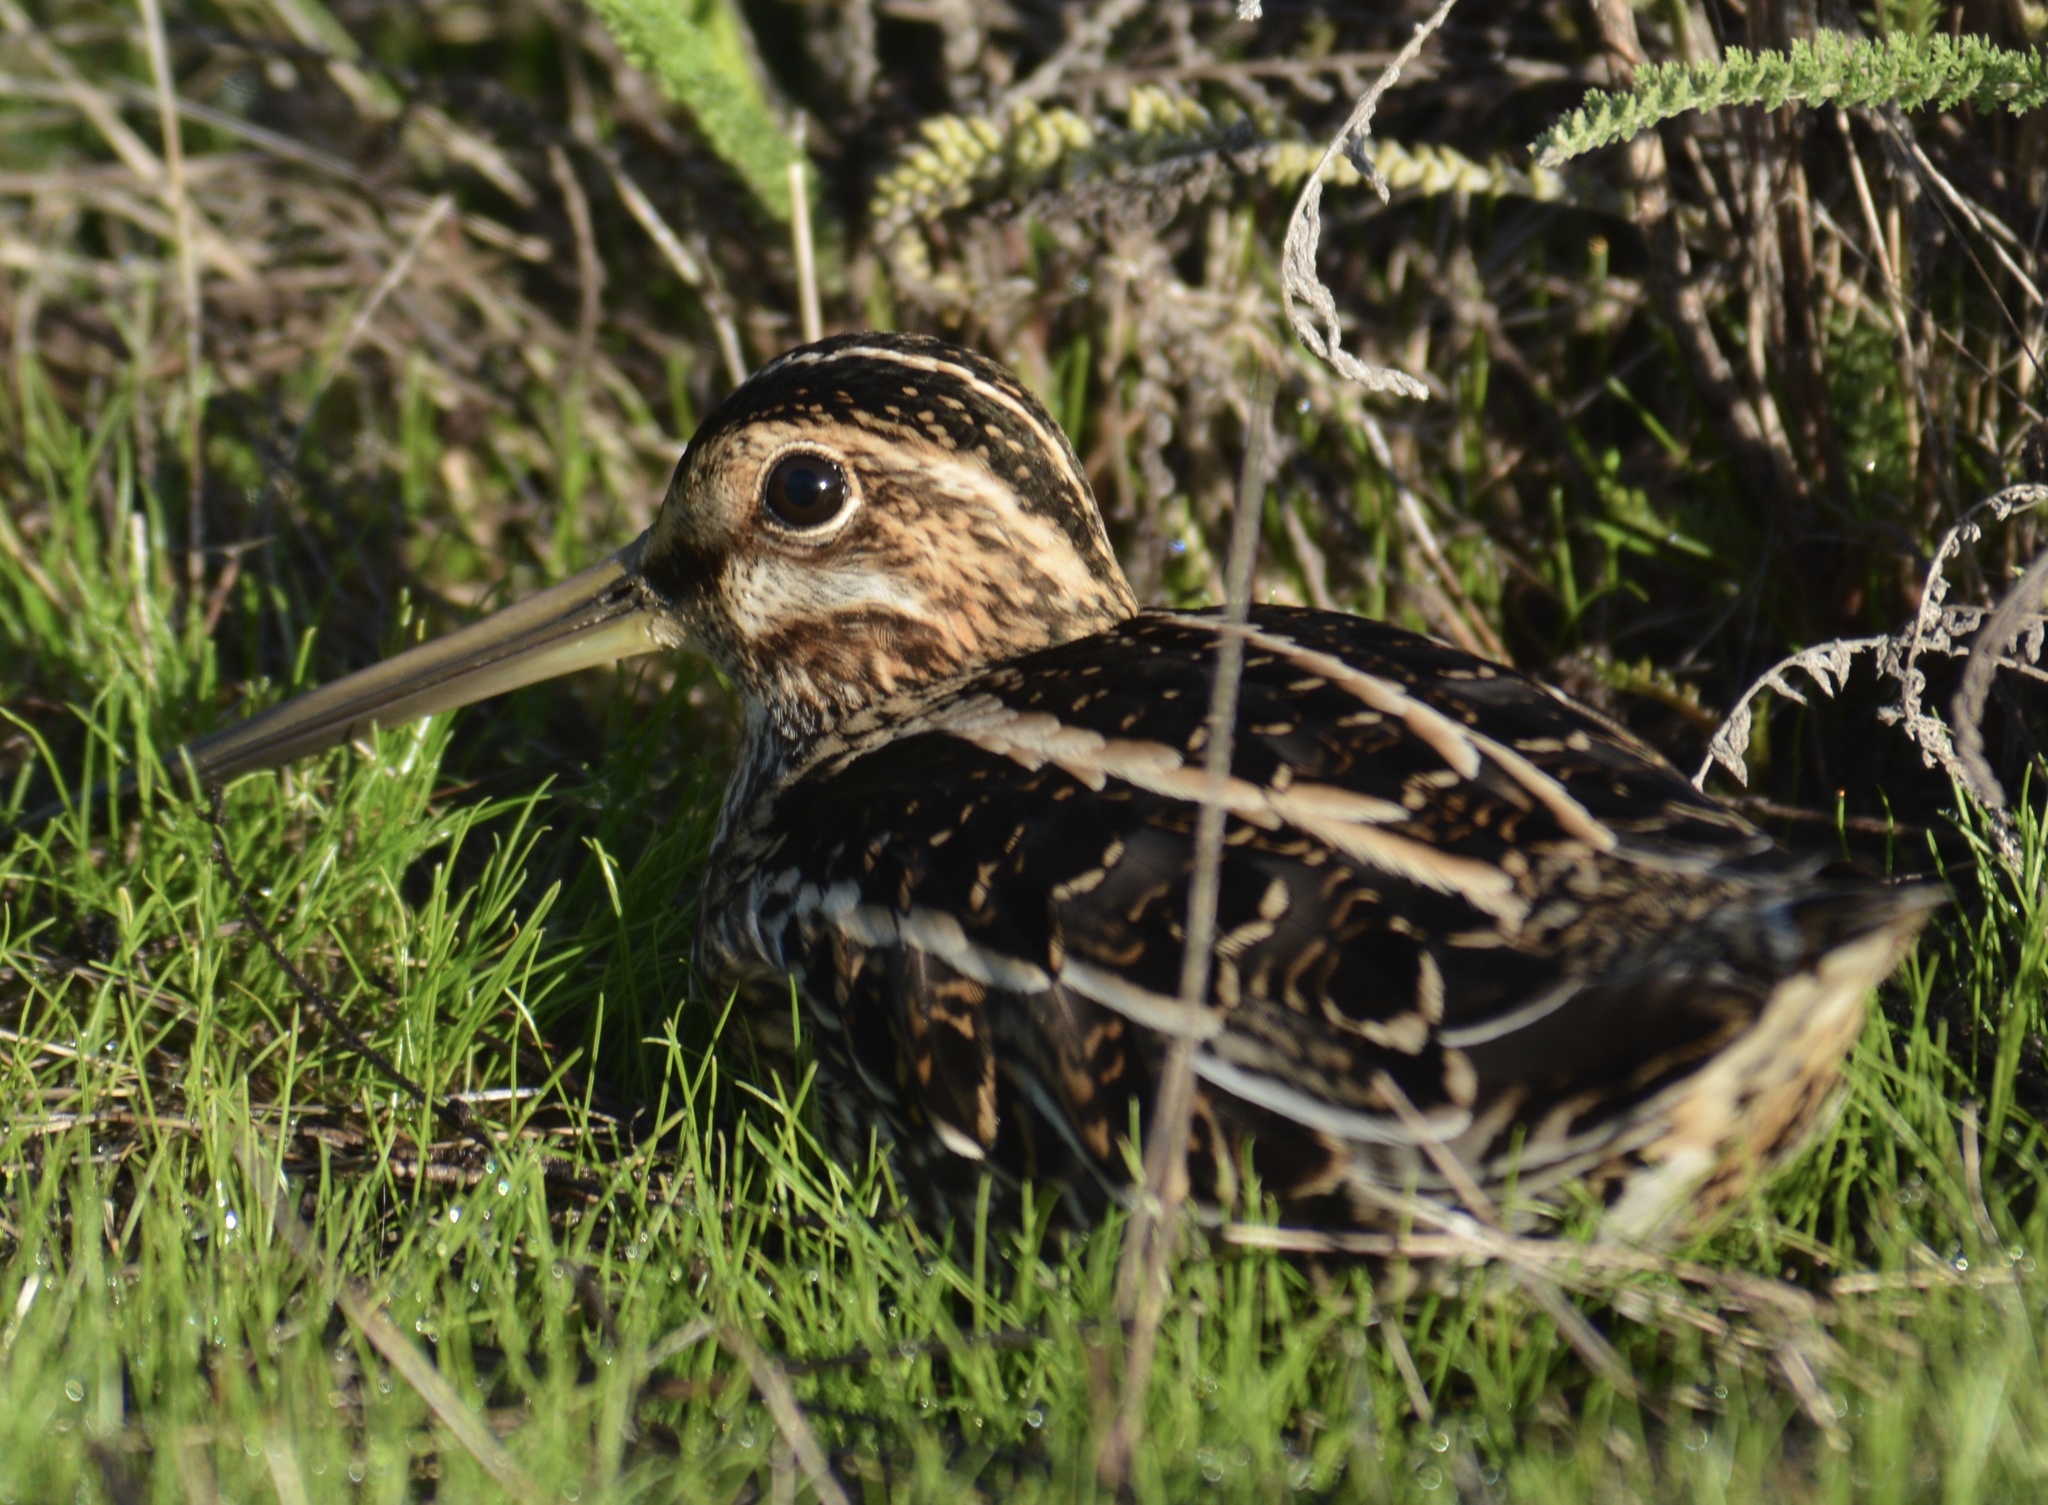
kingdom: Animalia
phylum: Chordata
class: Aves
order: Charadriiformes
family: Scolopacidae
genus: Gallinago
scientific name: Gallinago delicata
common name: Wilson's snipe
